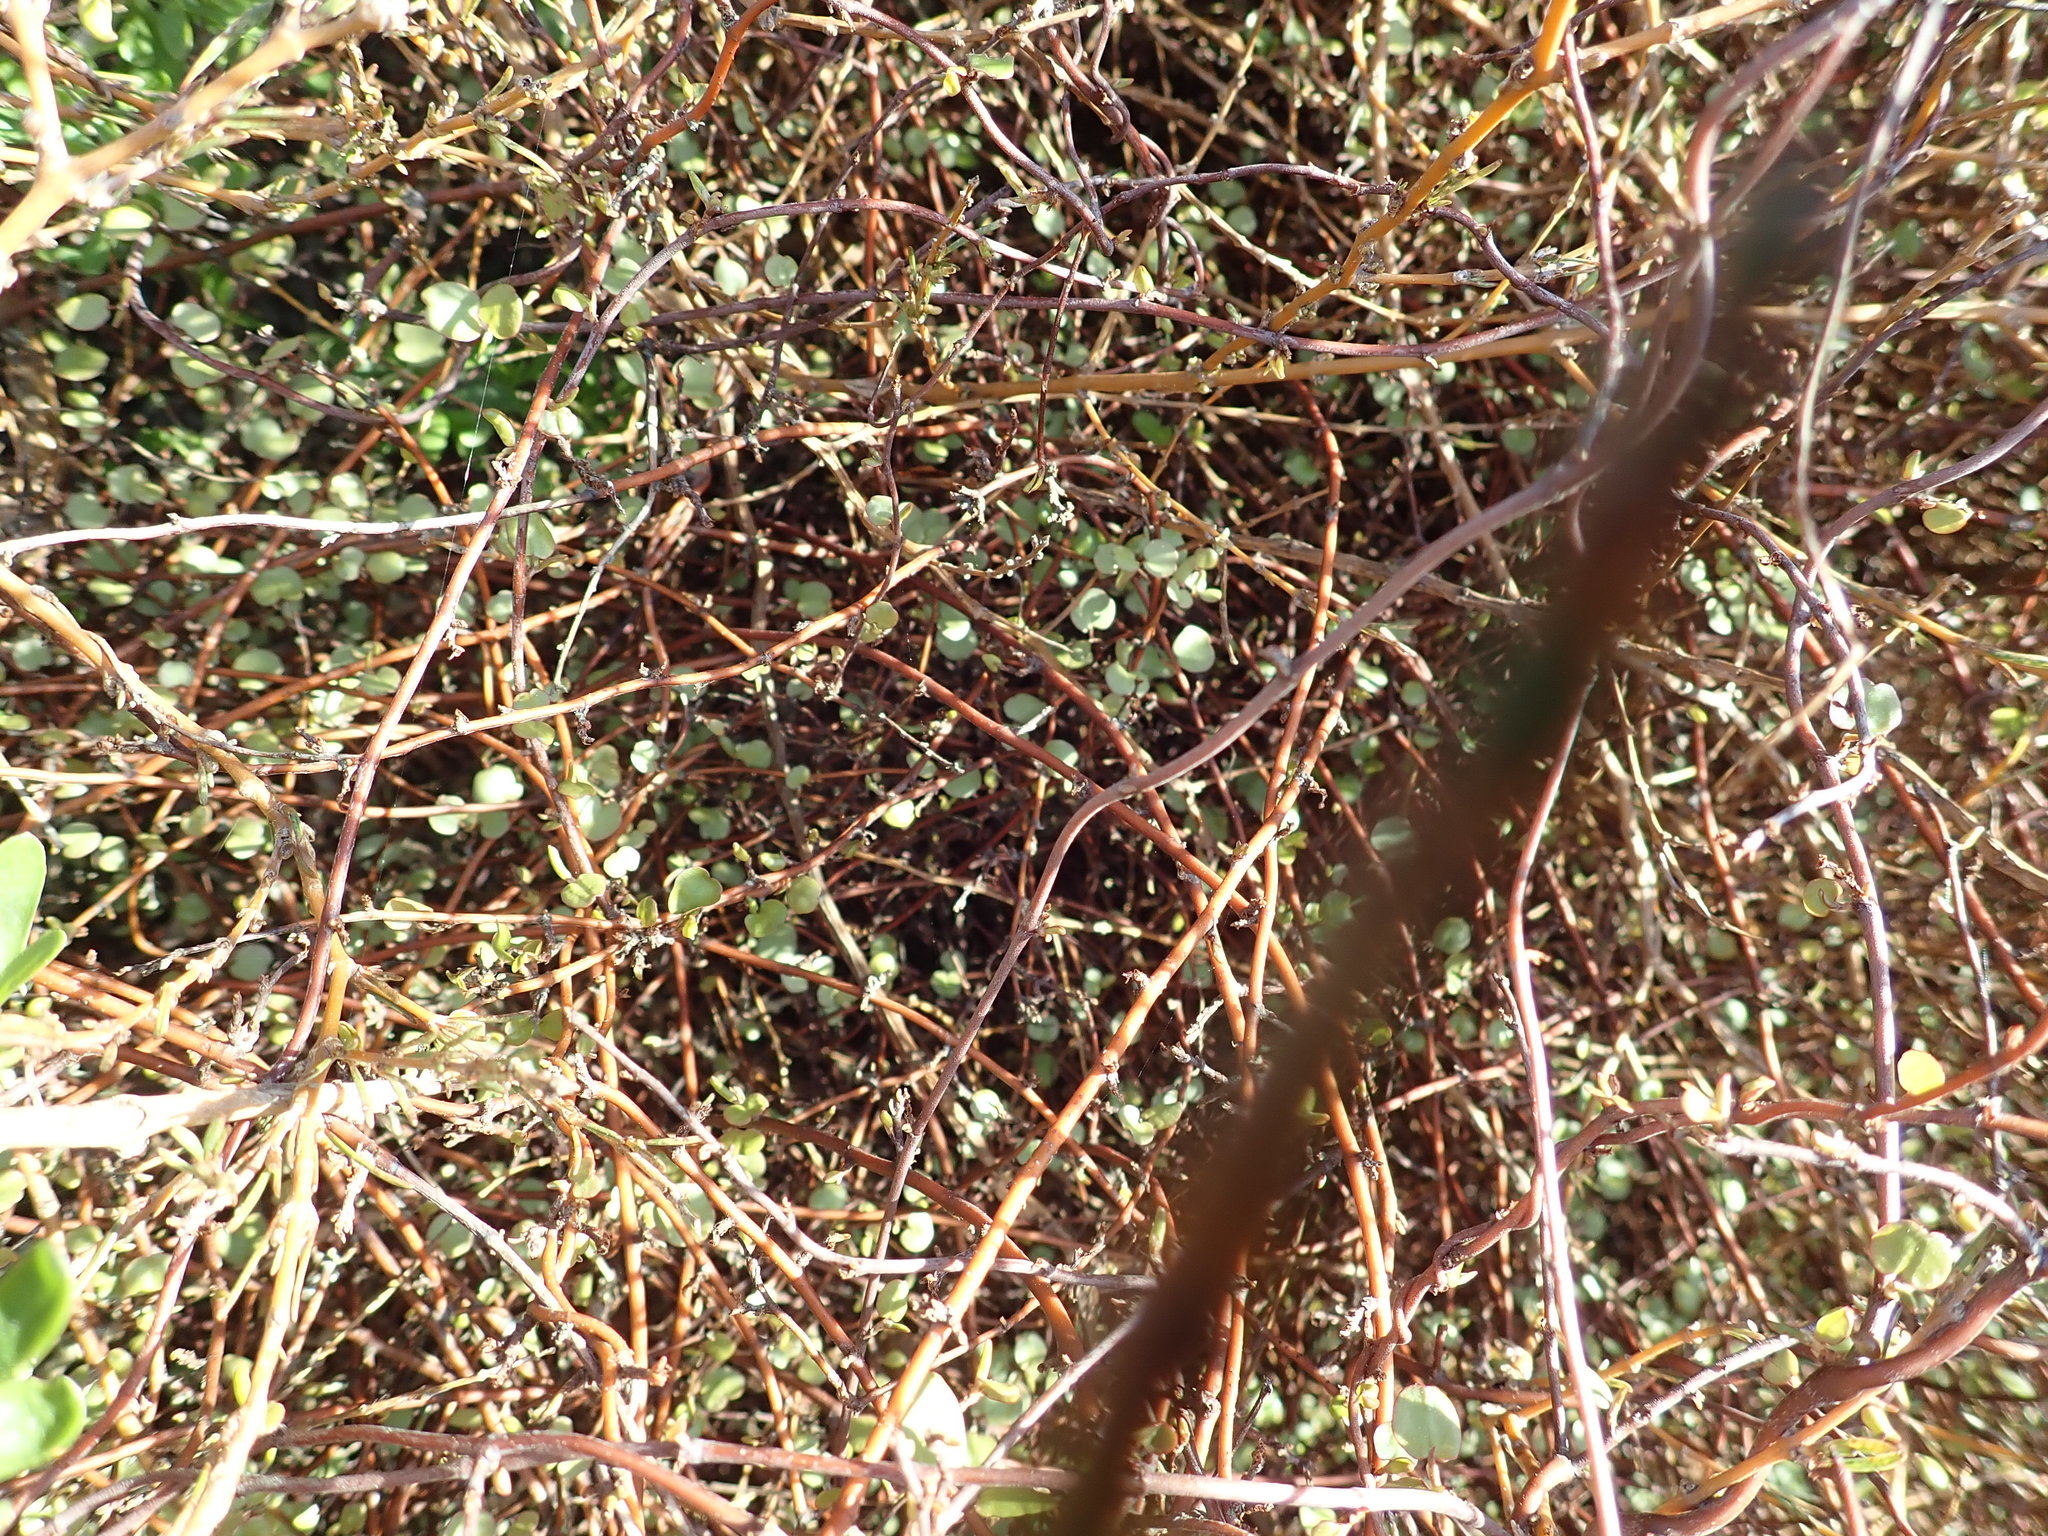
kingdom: Plantae
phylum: Tracheophyta
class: Magnoliopsida
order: Caryophyllales
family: Polygonaceae
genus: Muehlenbeckia
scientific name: Muehlenbeckia complexa
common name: Wireplant
